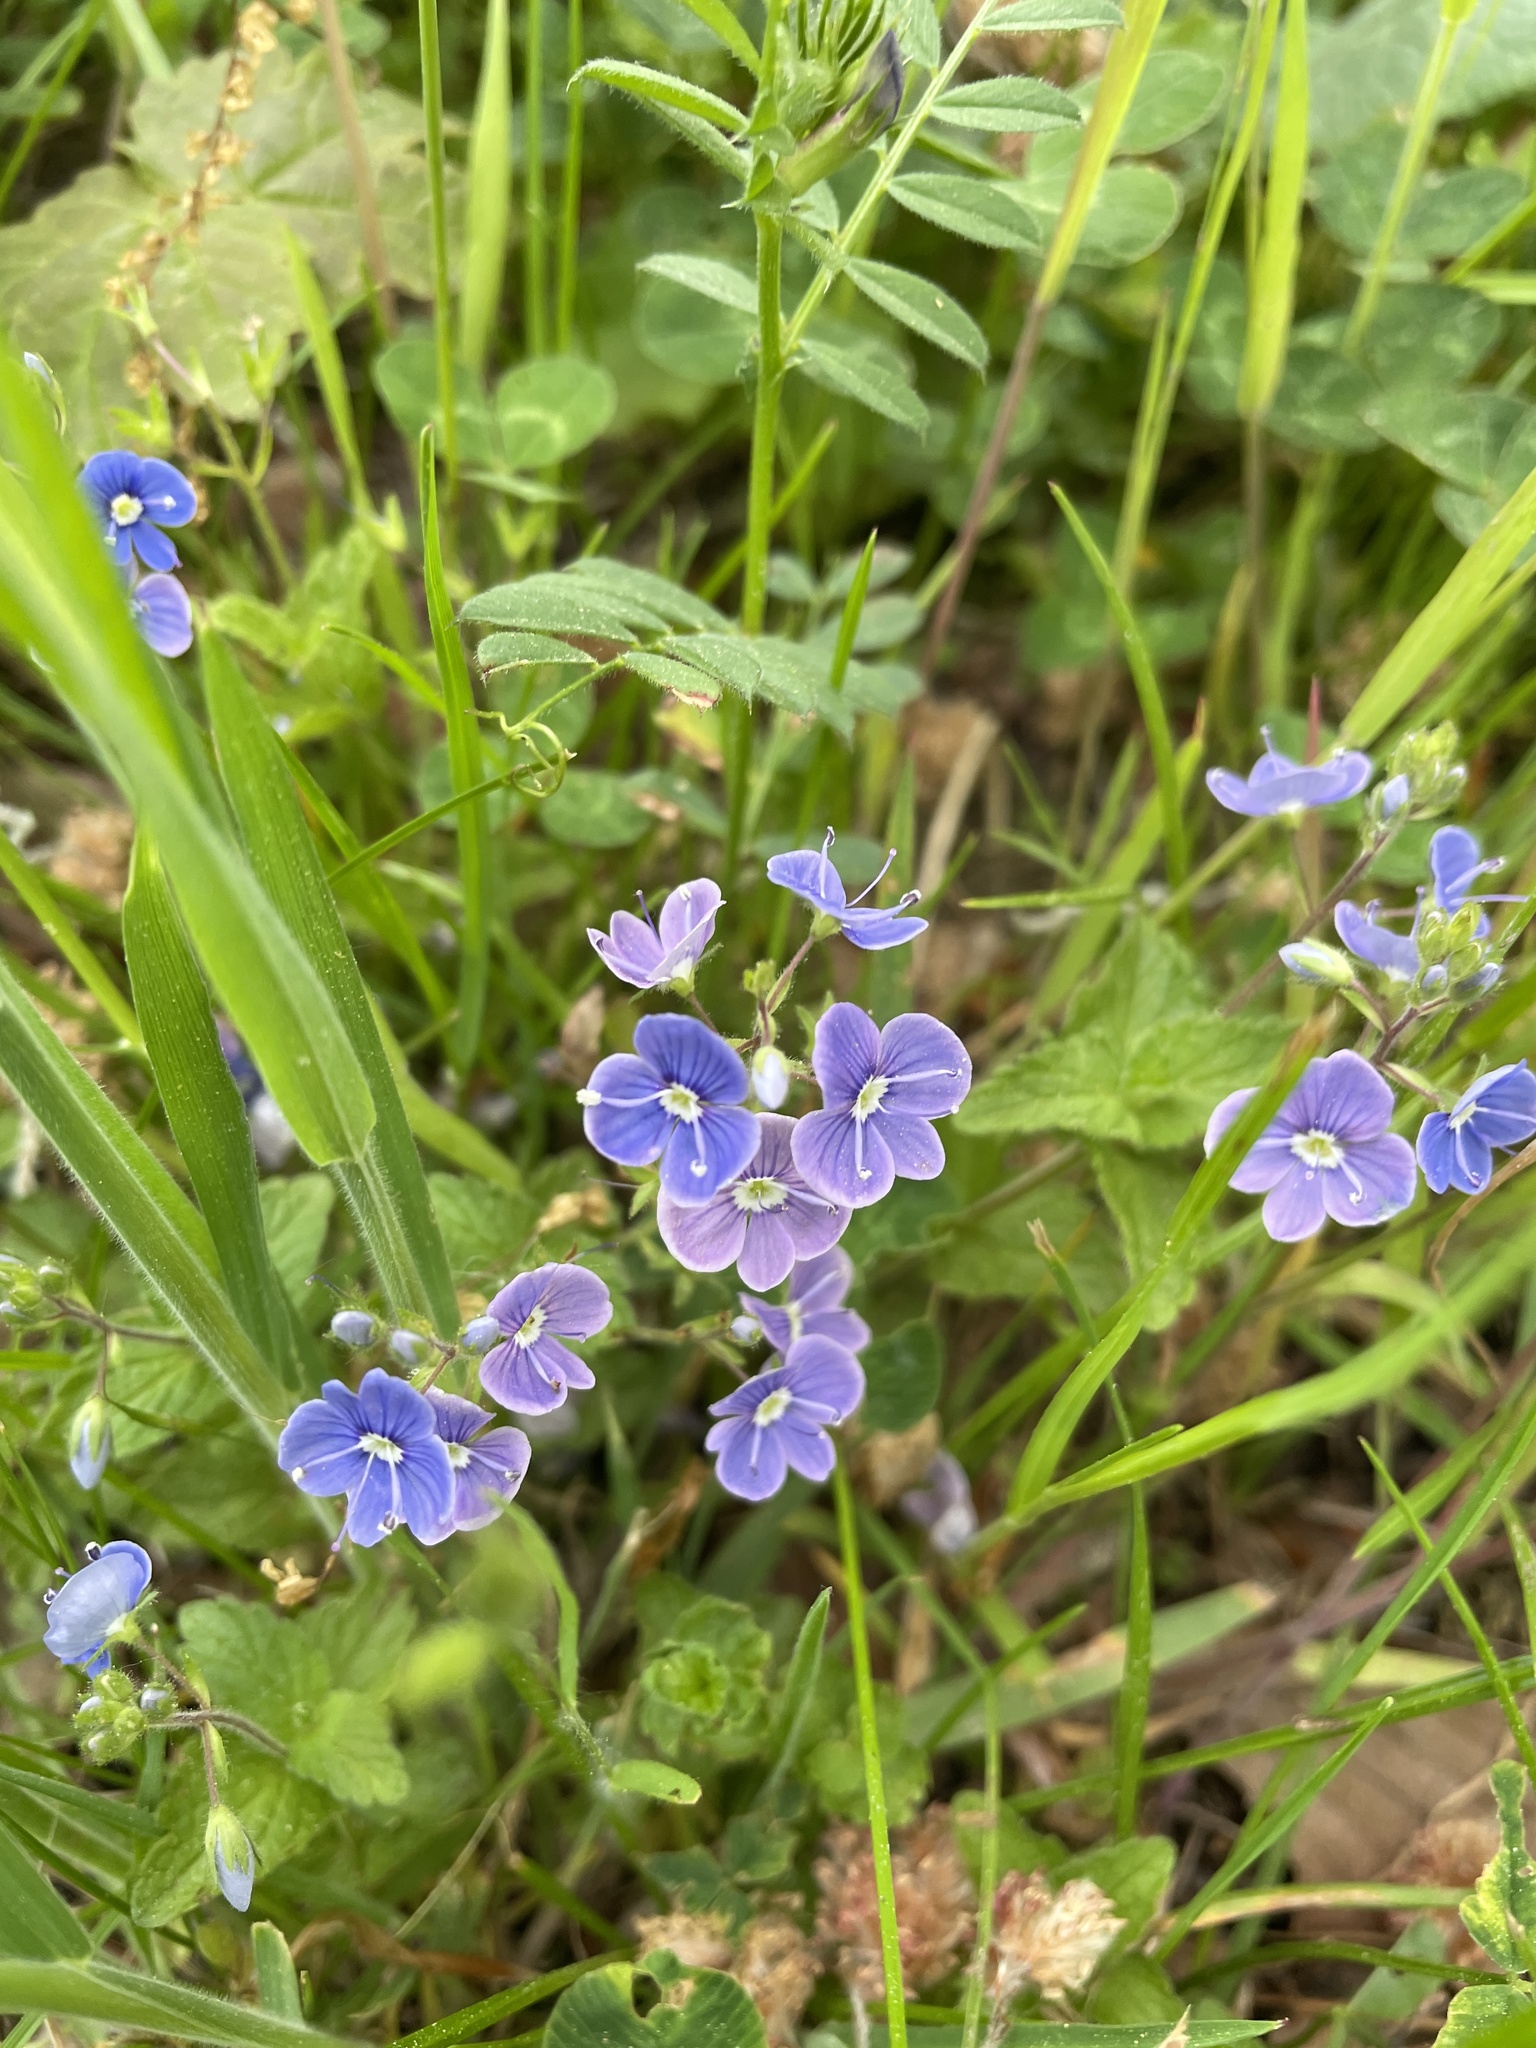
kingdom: Plantae
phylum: Tracheophyta
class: Magnoliopsida
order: Lamiales
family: Plantaginaceae
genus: Veronica
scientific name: Veronica chamaedrys
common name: Germander speedwell
